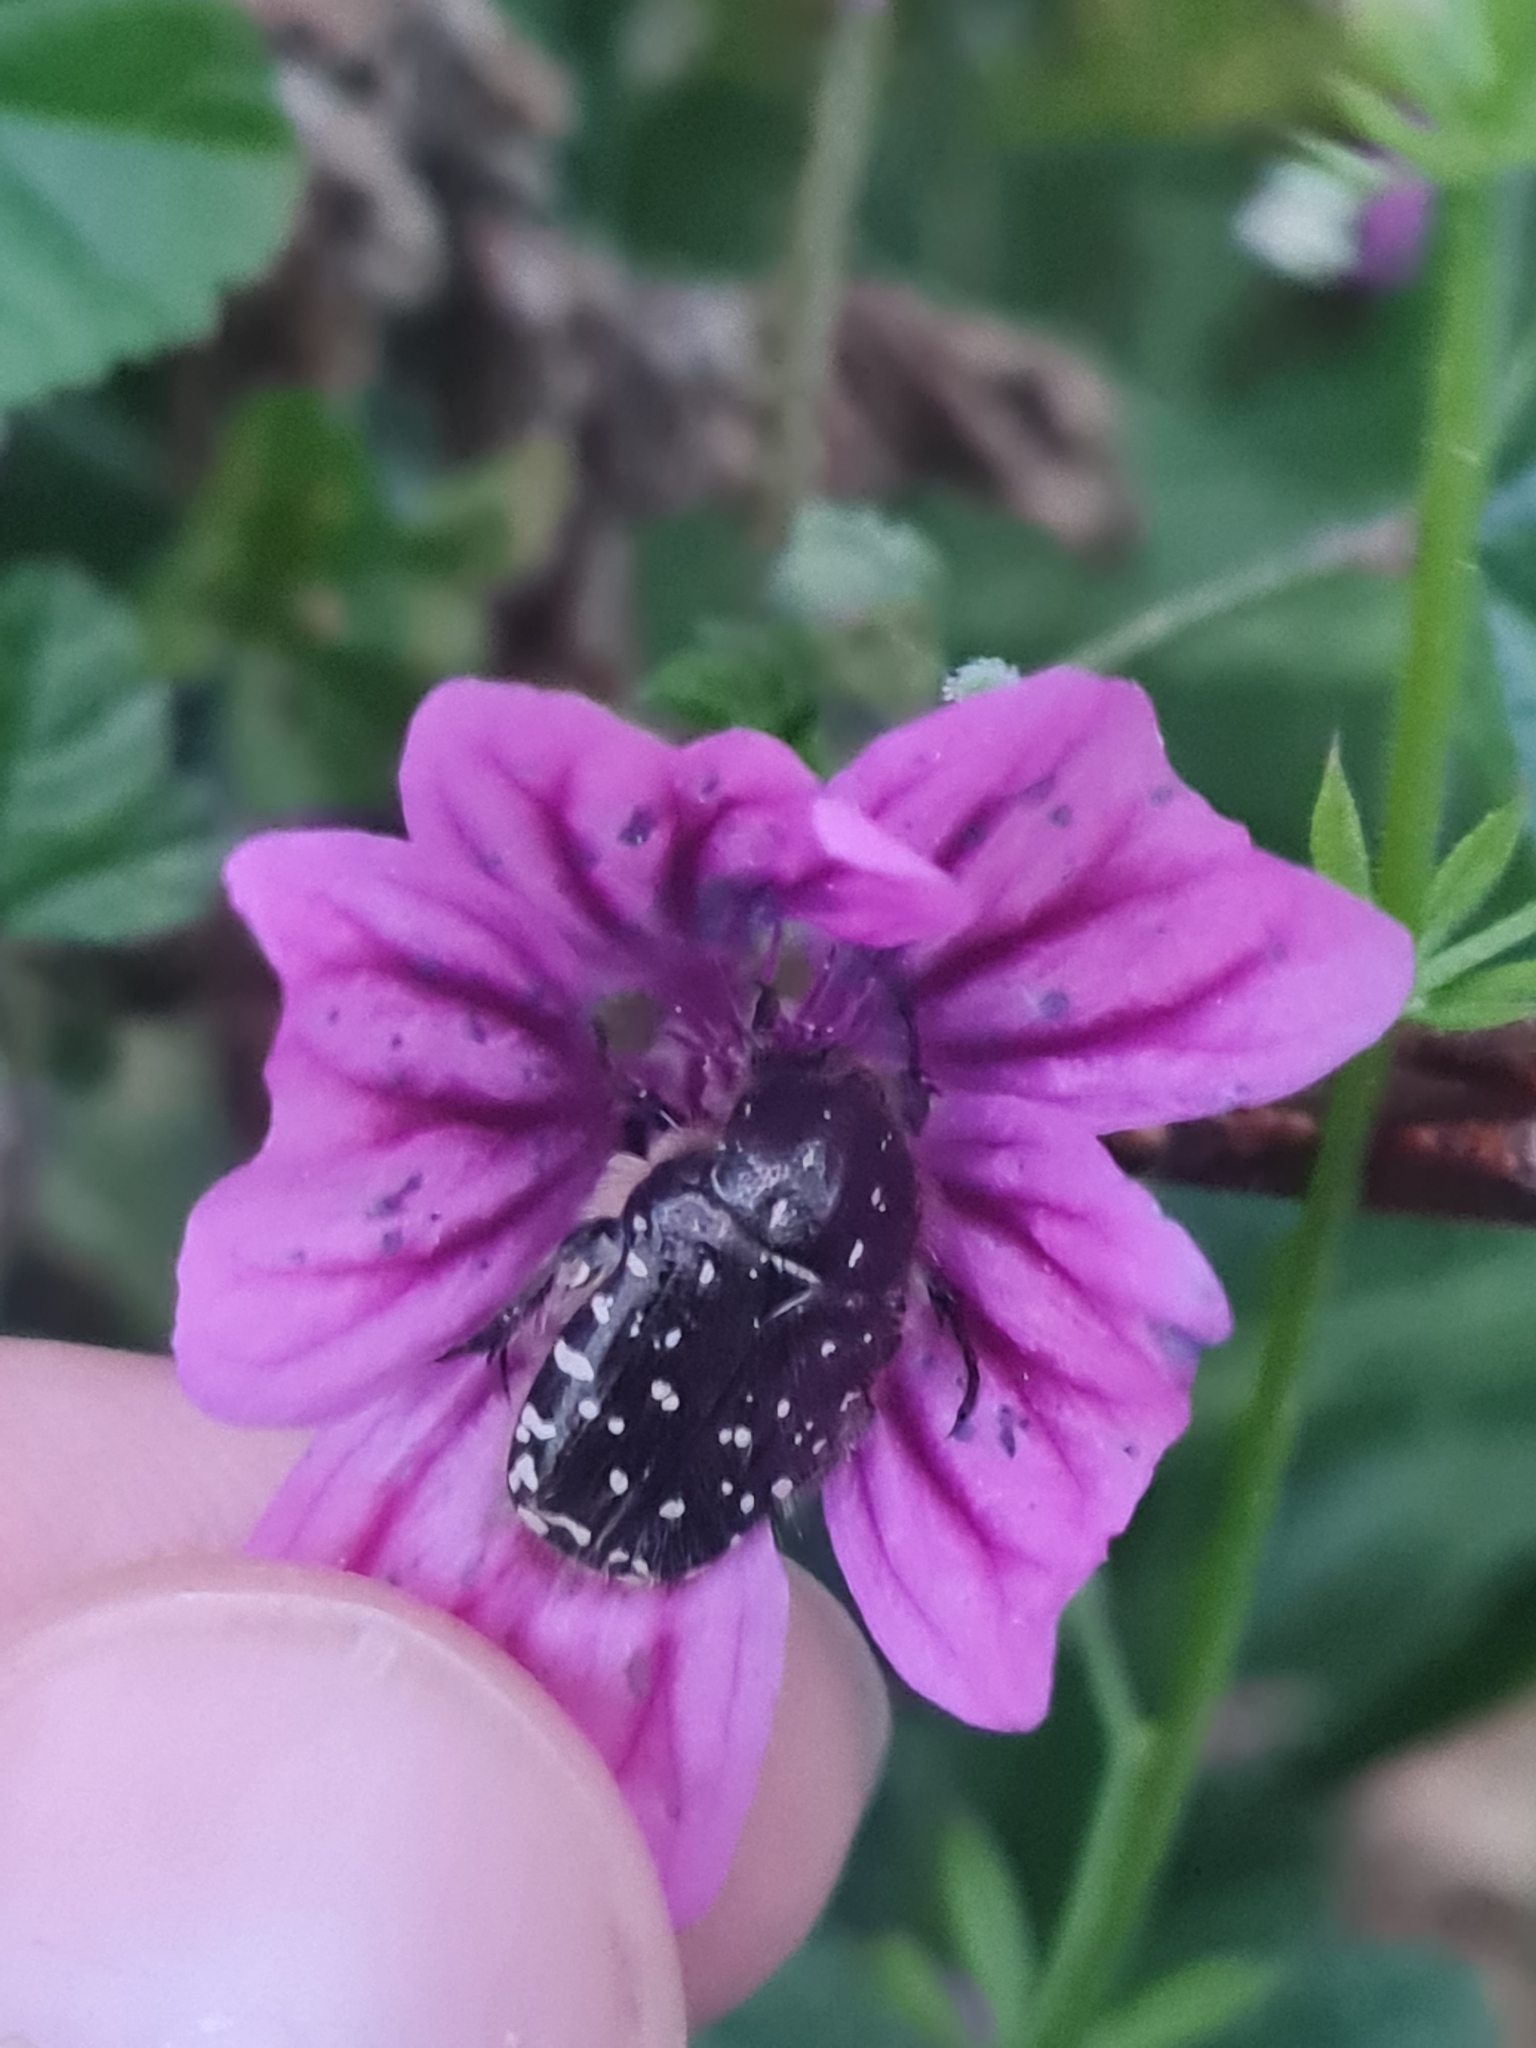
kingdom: Animalia
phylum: Arthropoda
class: Insecta
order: Coleoptera
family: Scarabaeidae
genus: Oxythyrea
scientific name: Oxythyrea funesta
